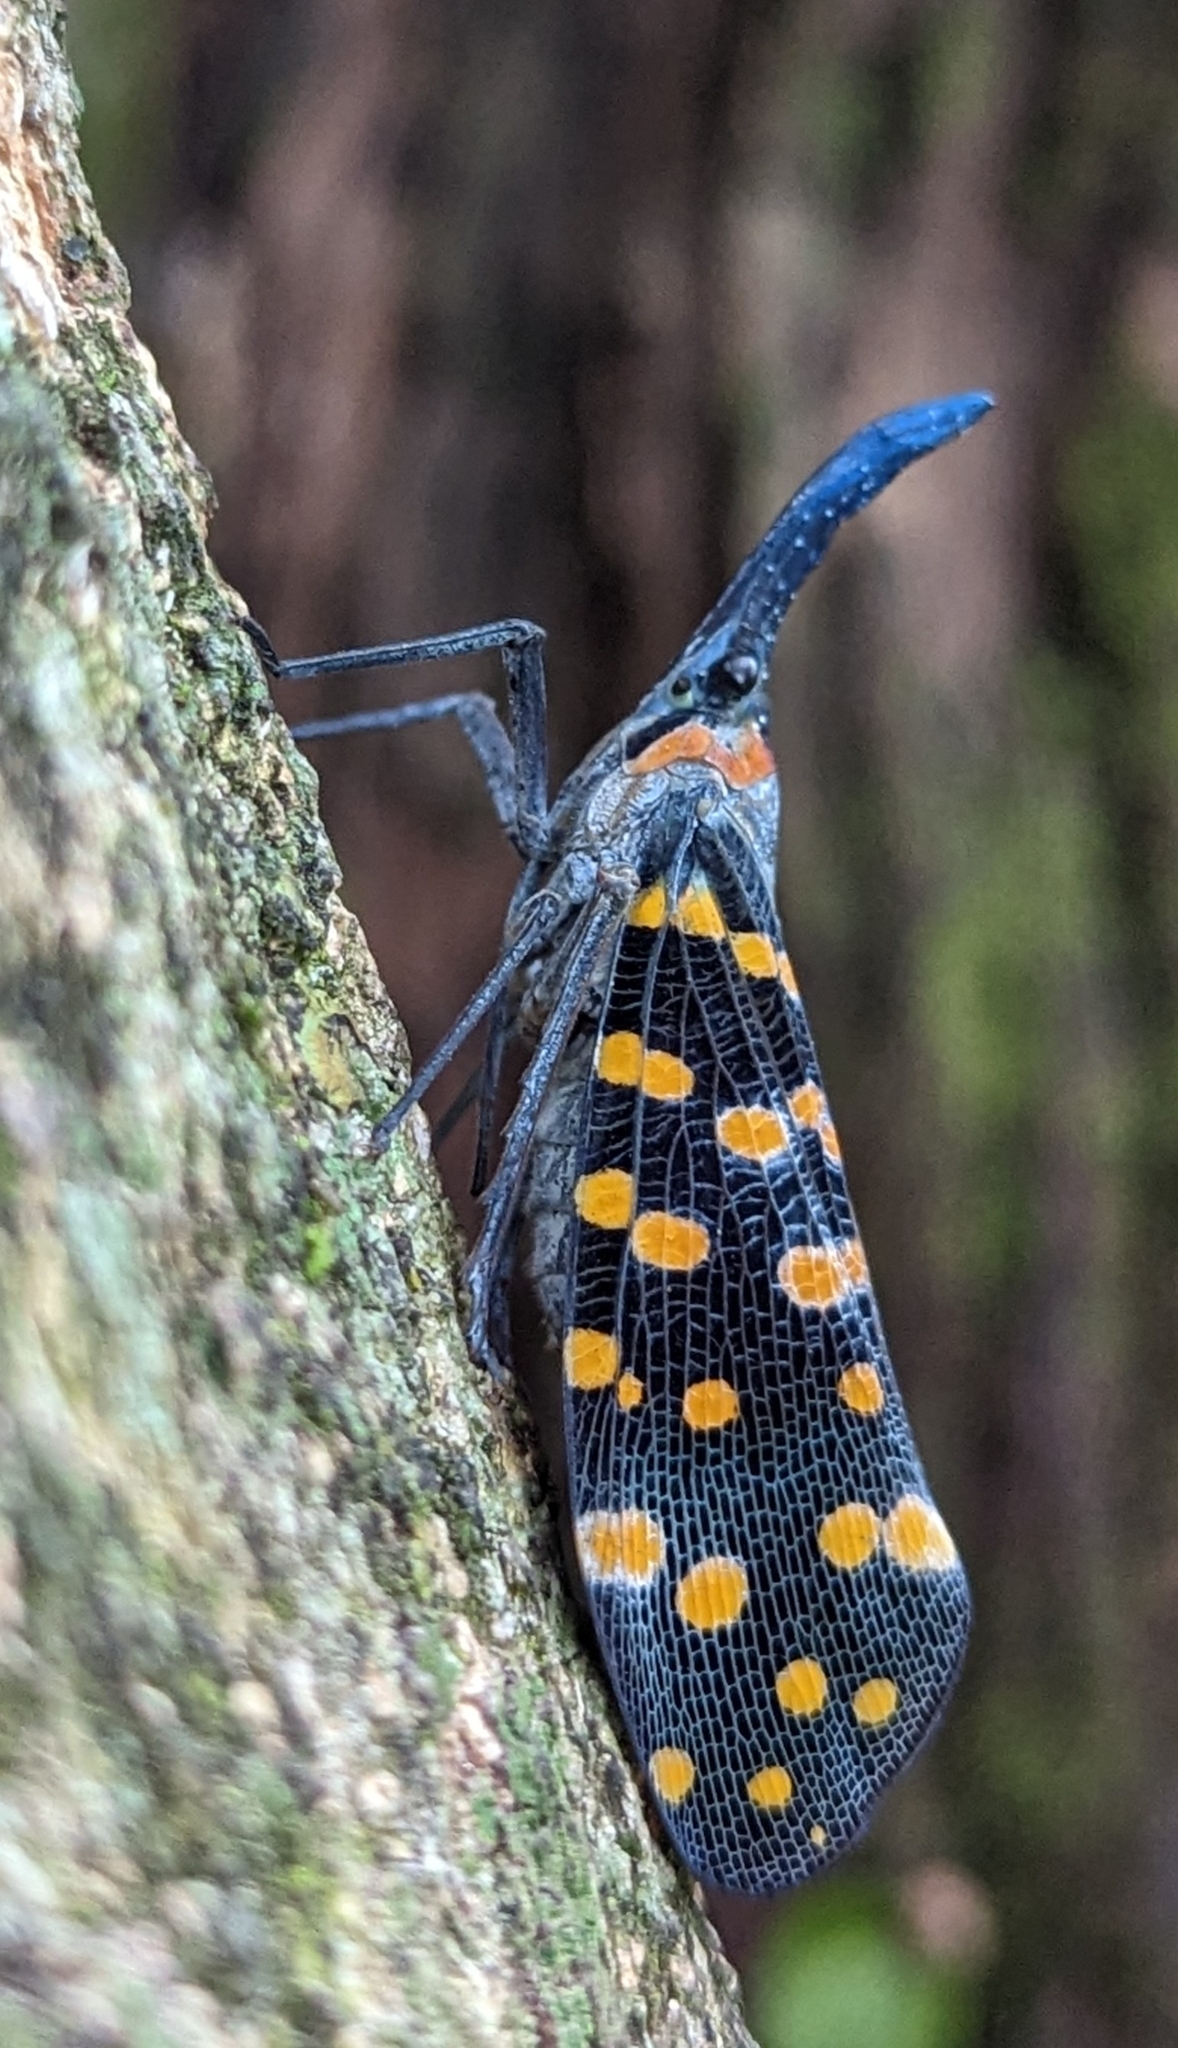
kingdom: Animalia
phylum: Arthropoda
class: Insecta
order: Hemiptera
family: Fulgoridae
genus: Pyrops
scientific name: Pyrops
